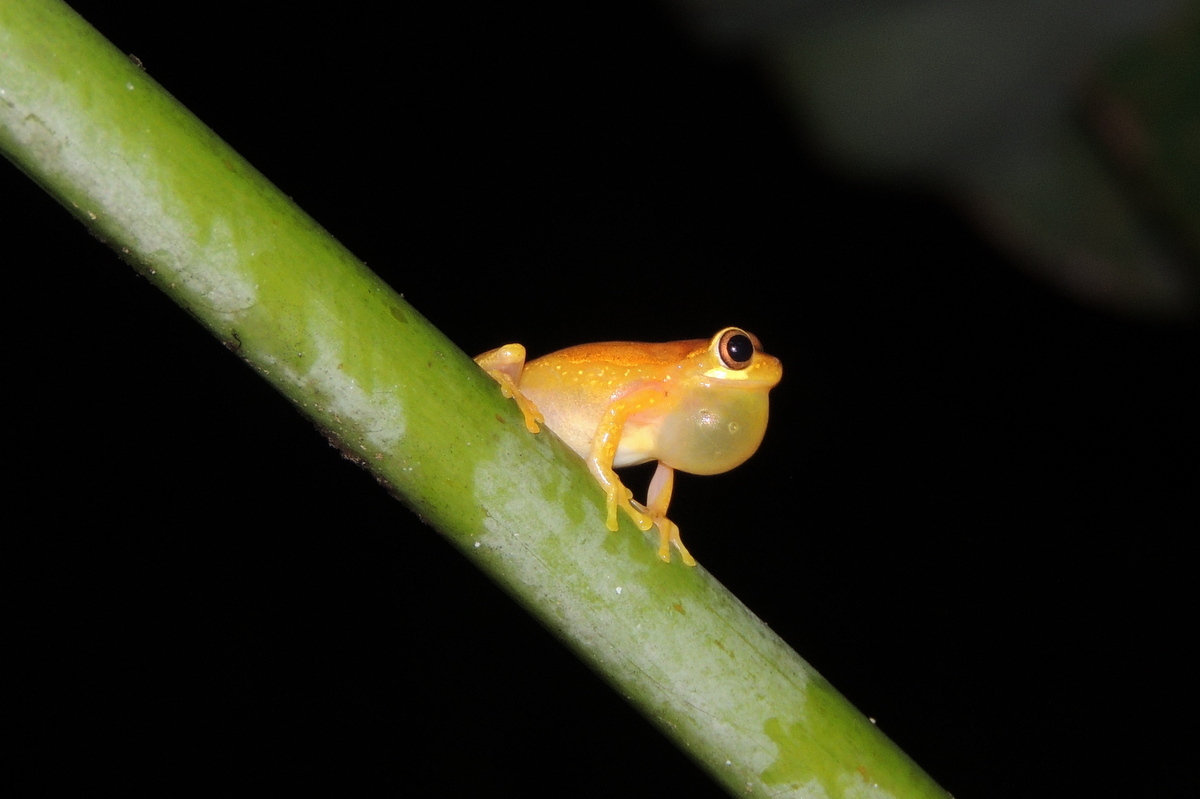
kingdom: Animalia
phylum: Chordata
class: Amphibia
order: Anura
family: Hylidae
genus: Dendropsophus
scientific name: Dendropsophus microcephalus
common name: Small-headed treefrog
